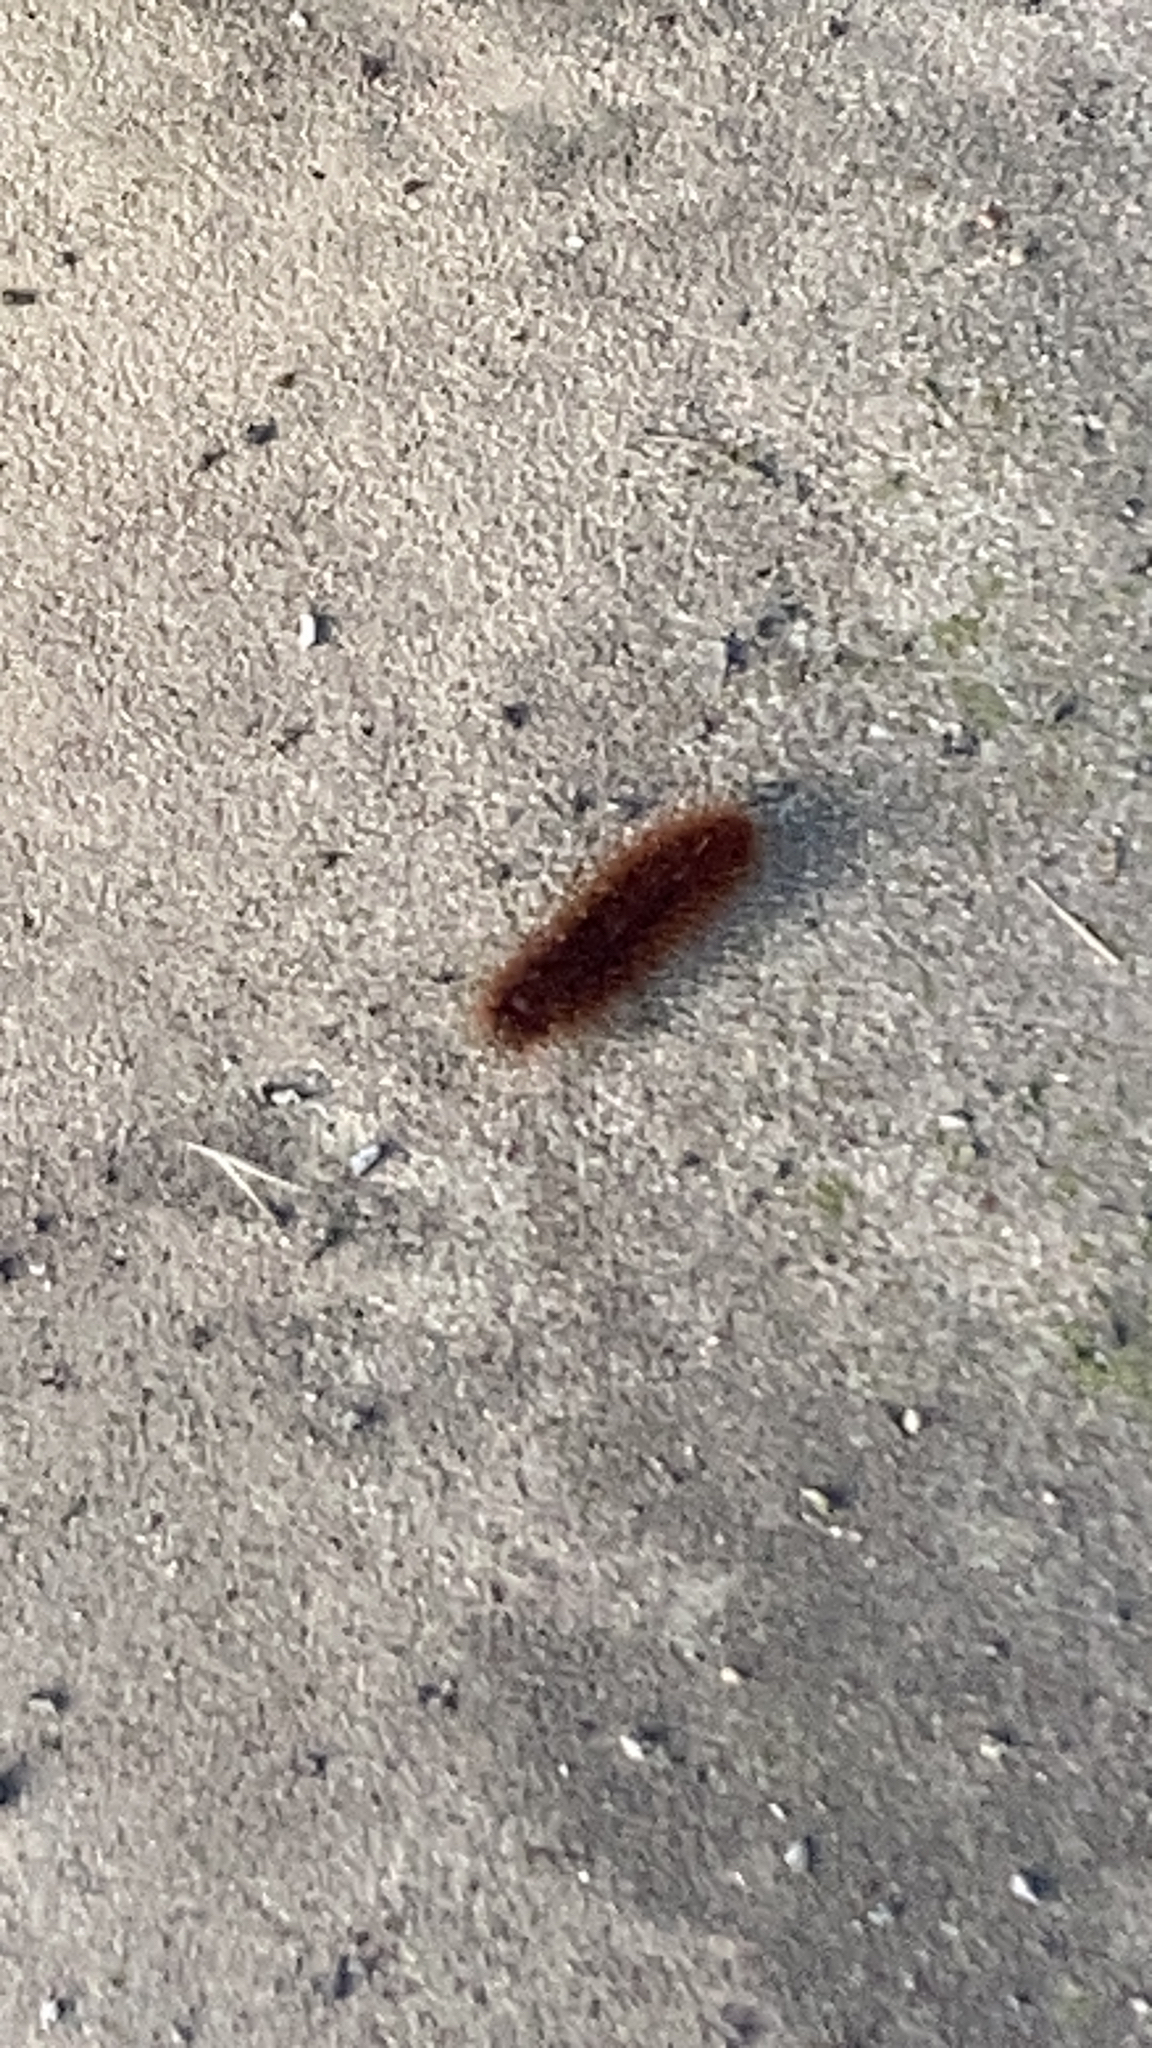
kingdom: Animalia
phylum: Arthropoda
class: Insecta
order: Lepidoptera
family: Erebidae
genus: Phragmatobia
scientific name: Phragmatobia fuliginosa
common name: Ruby tiger
